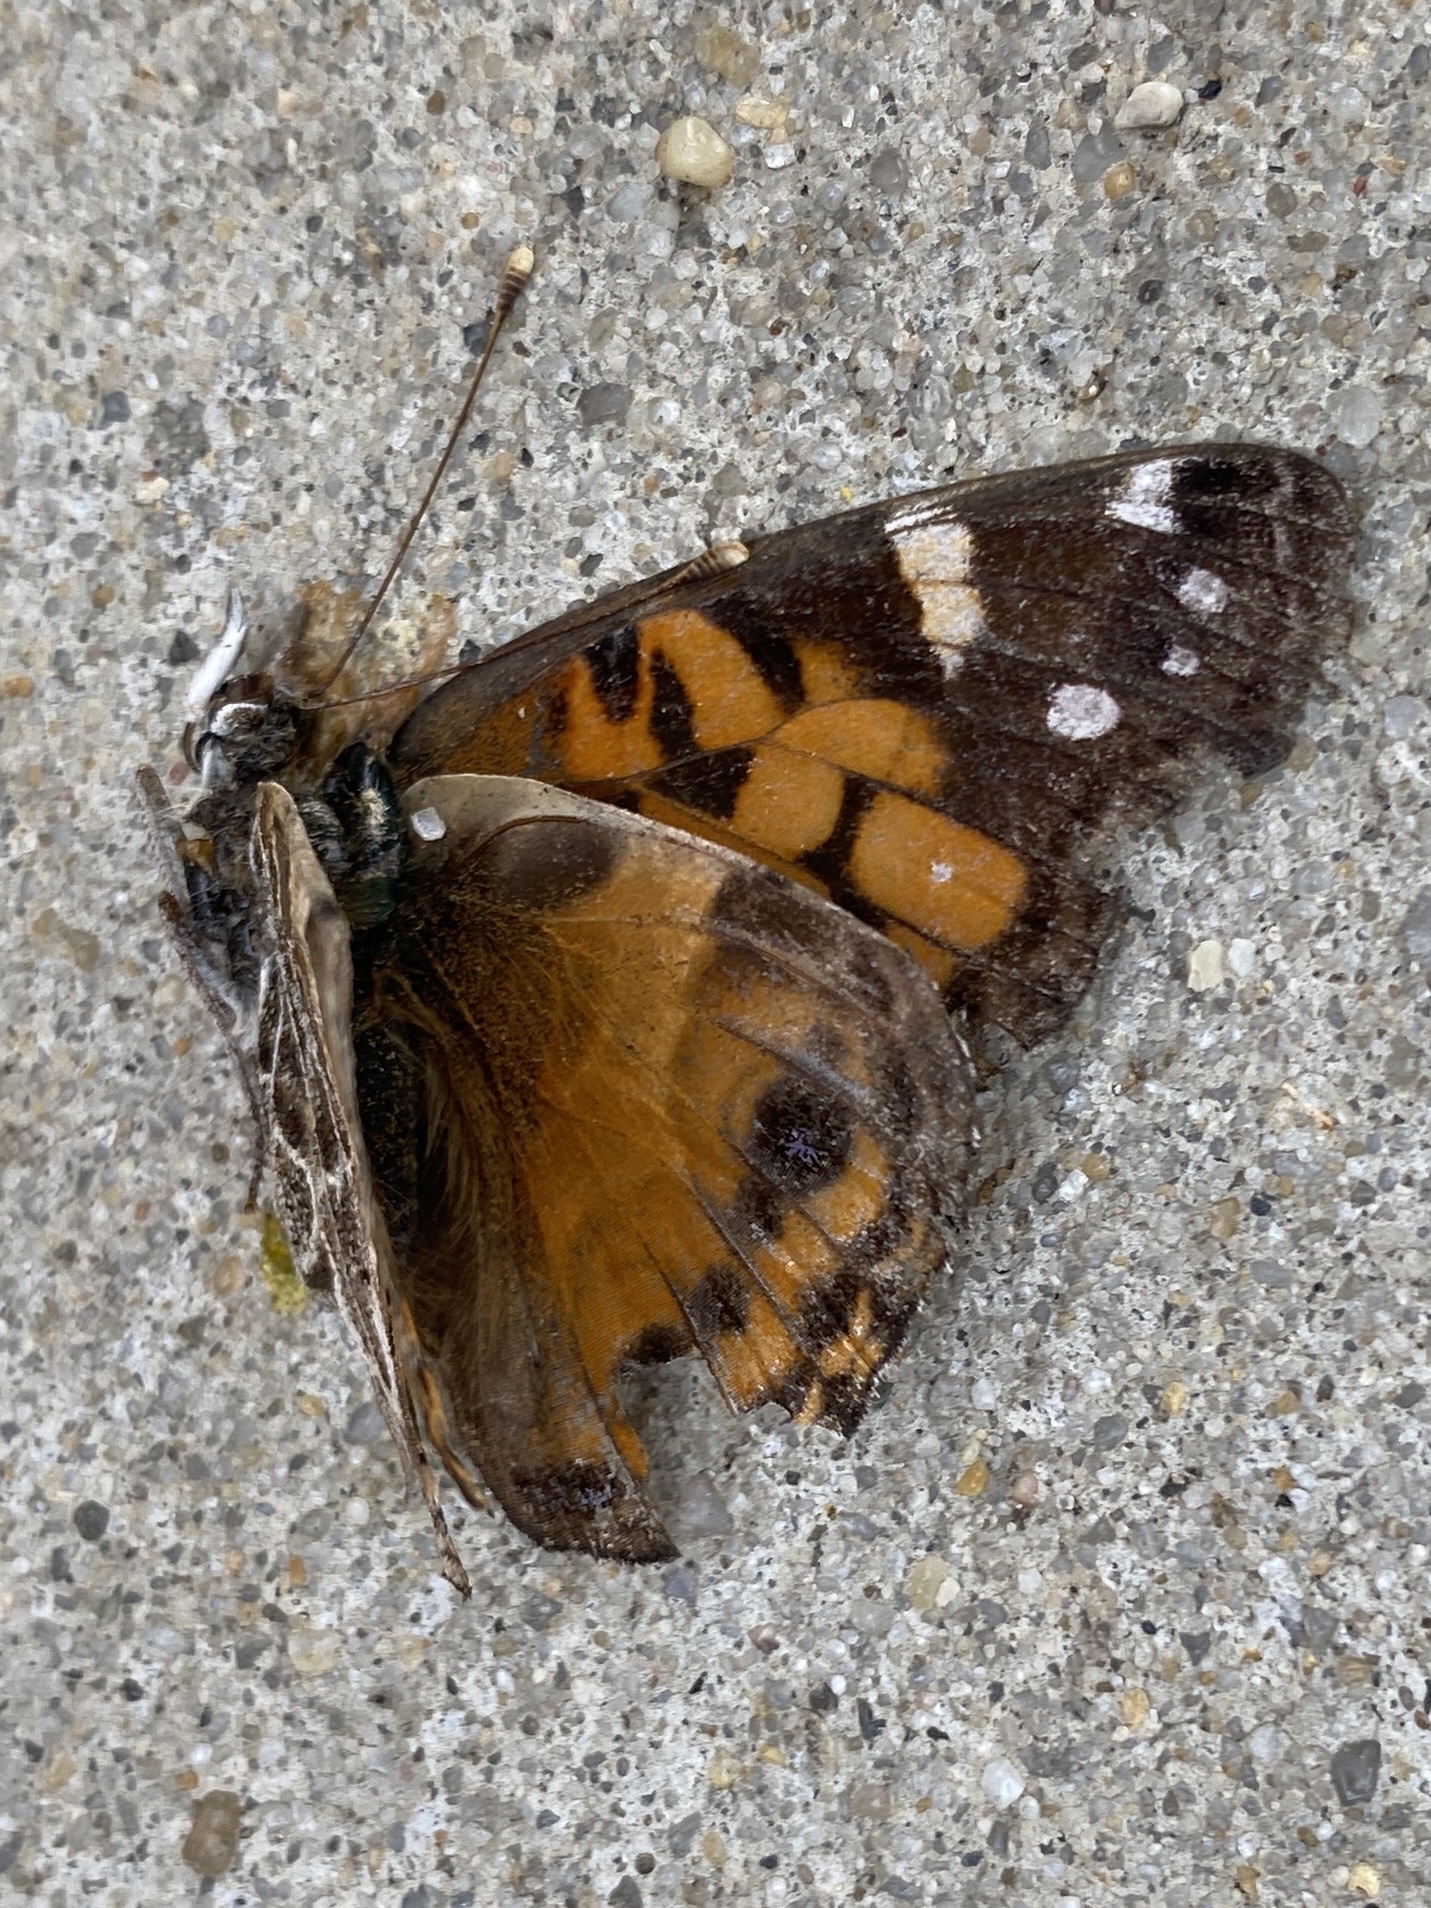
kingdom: Animalia
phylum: Arthropoda
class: Insecta
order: Lepidoptera
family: Nymphalidae
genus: Vanessa
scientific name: Vanessa virginiensis
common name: American lady
